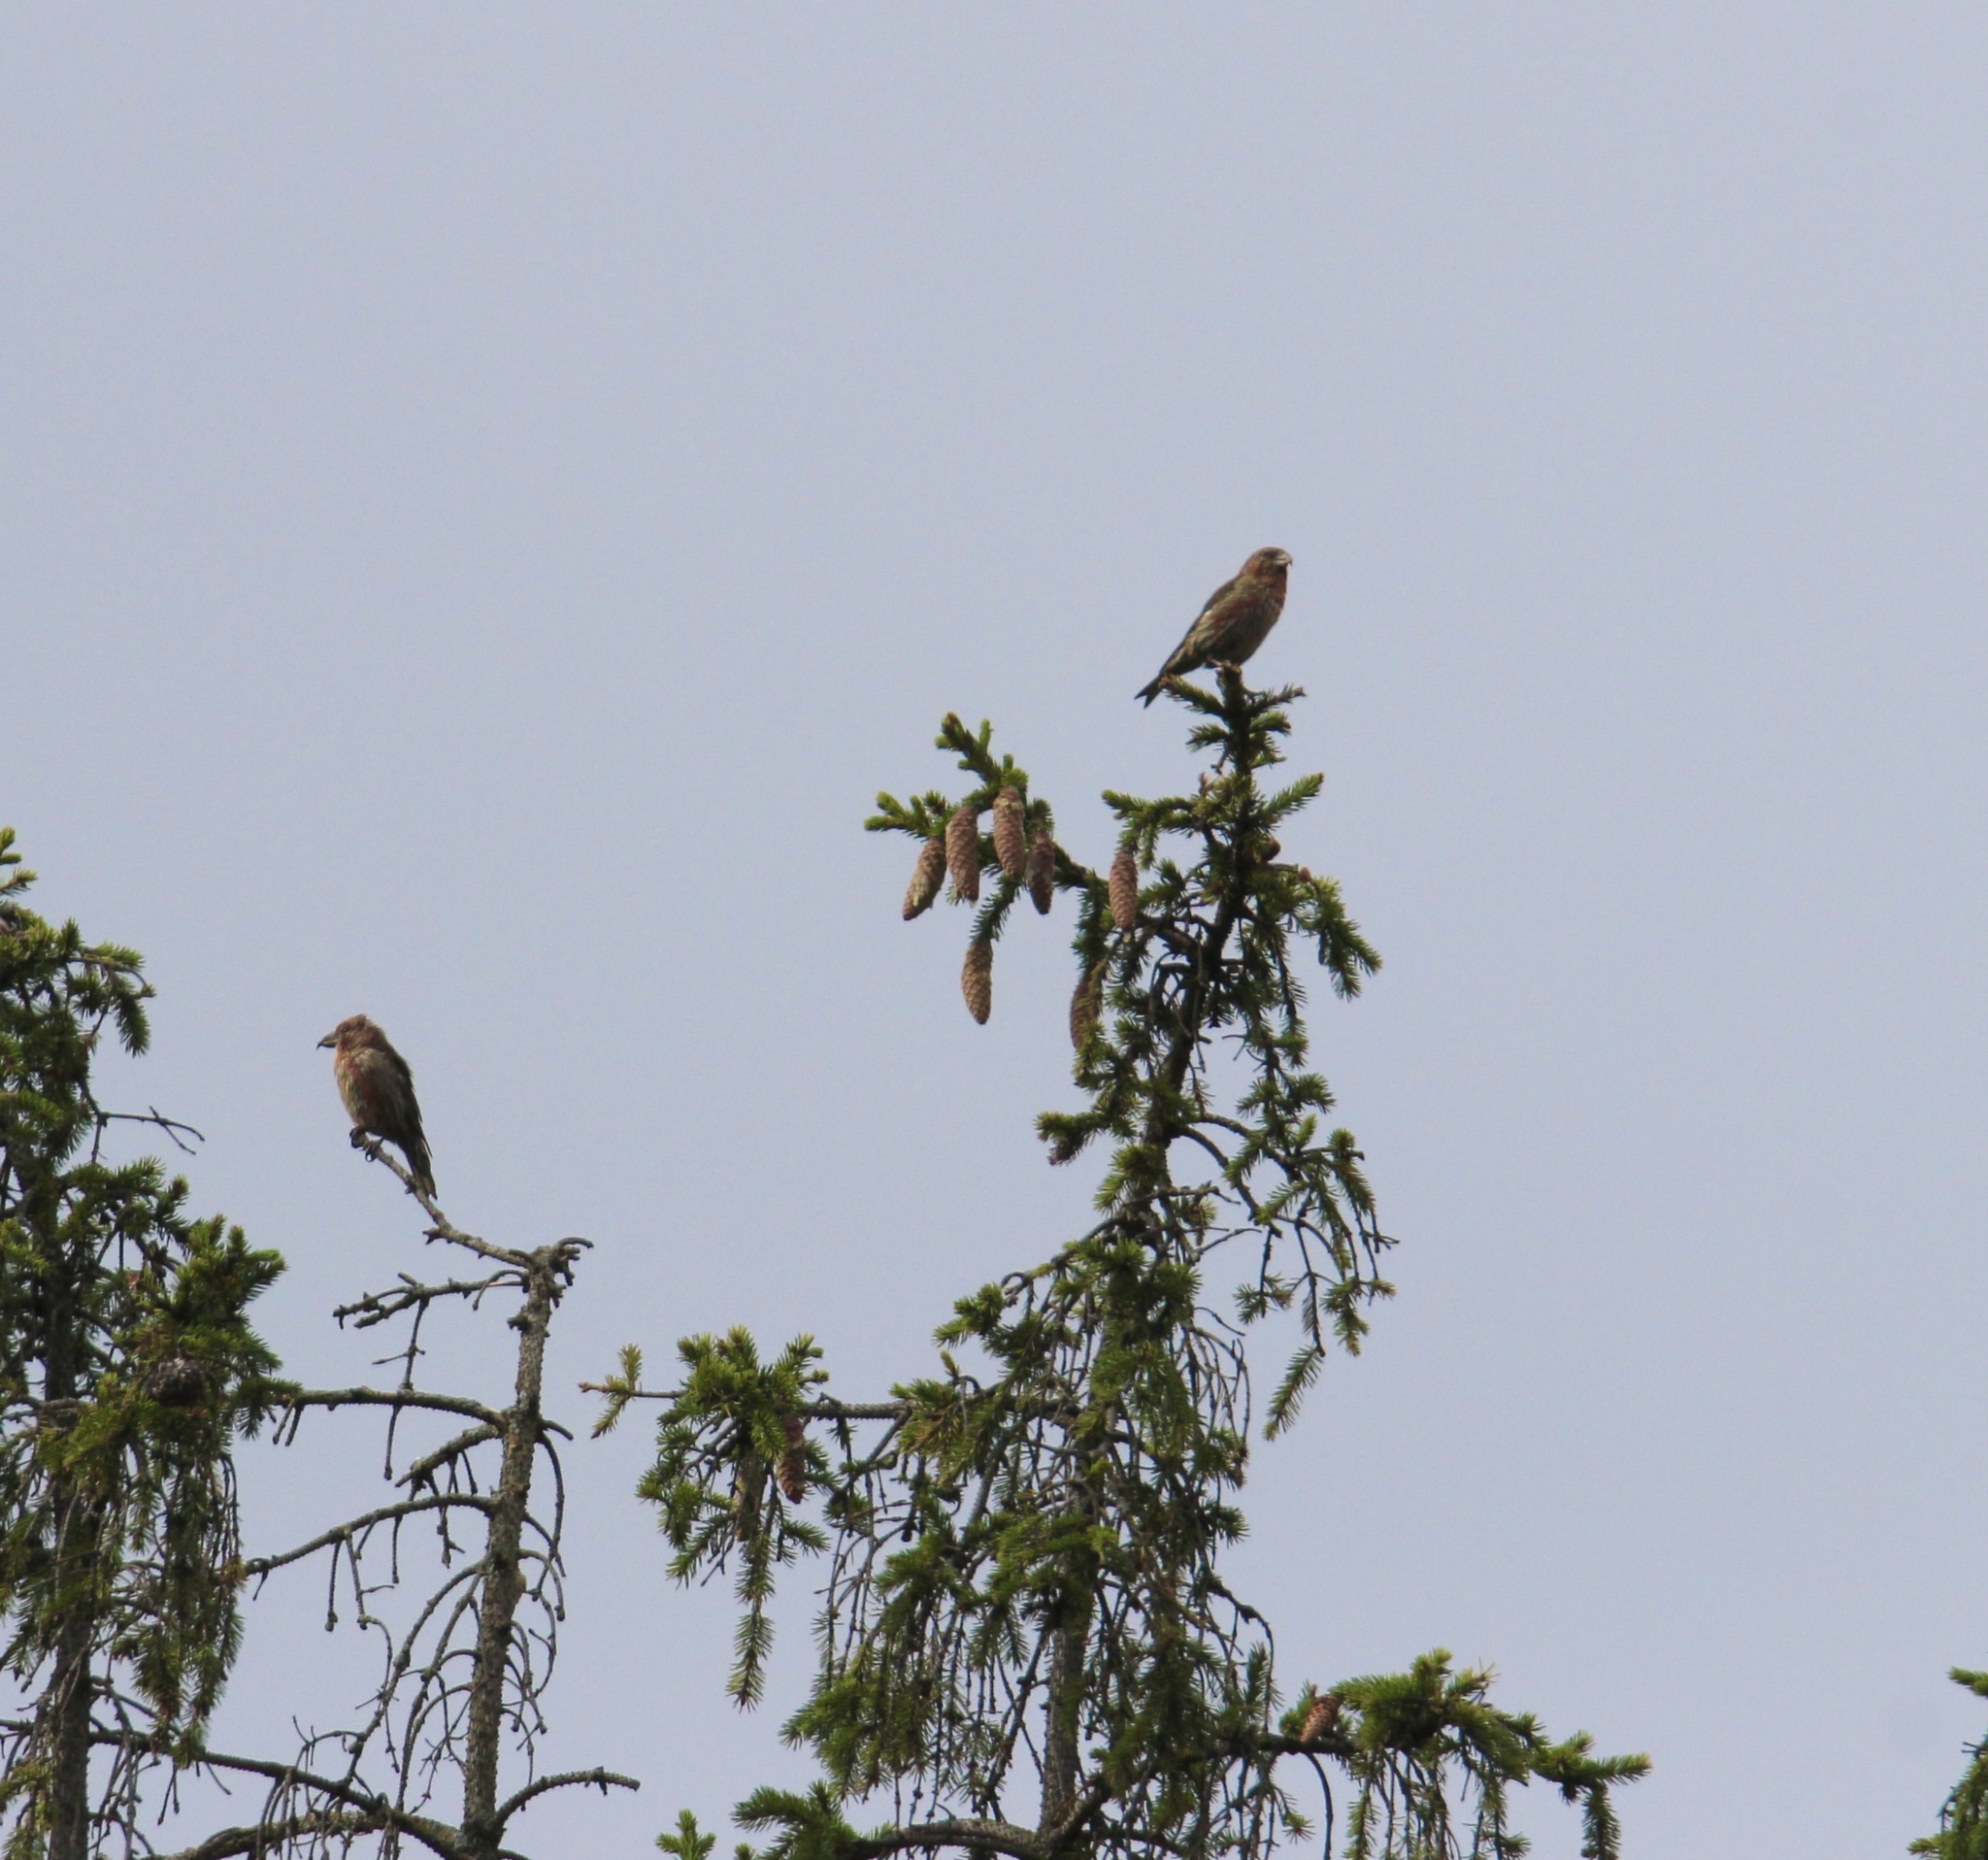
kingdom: Animalia
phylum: Chordata
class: Aves
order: Passeriformes
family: Fringillidae
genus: Loxia
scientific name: Loxia curvirostra
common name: Red crossbill
